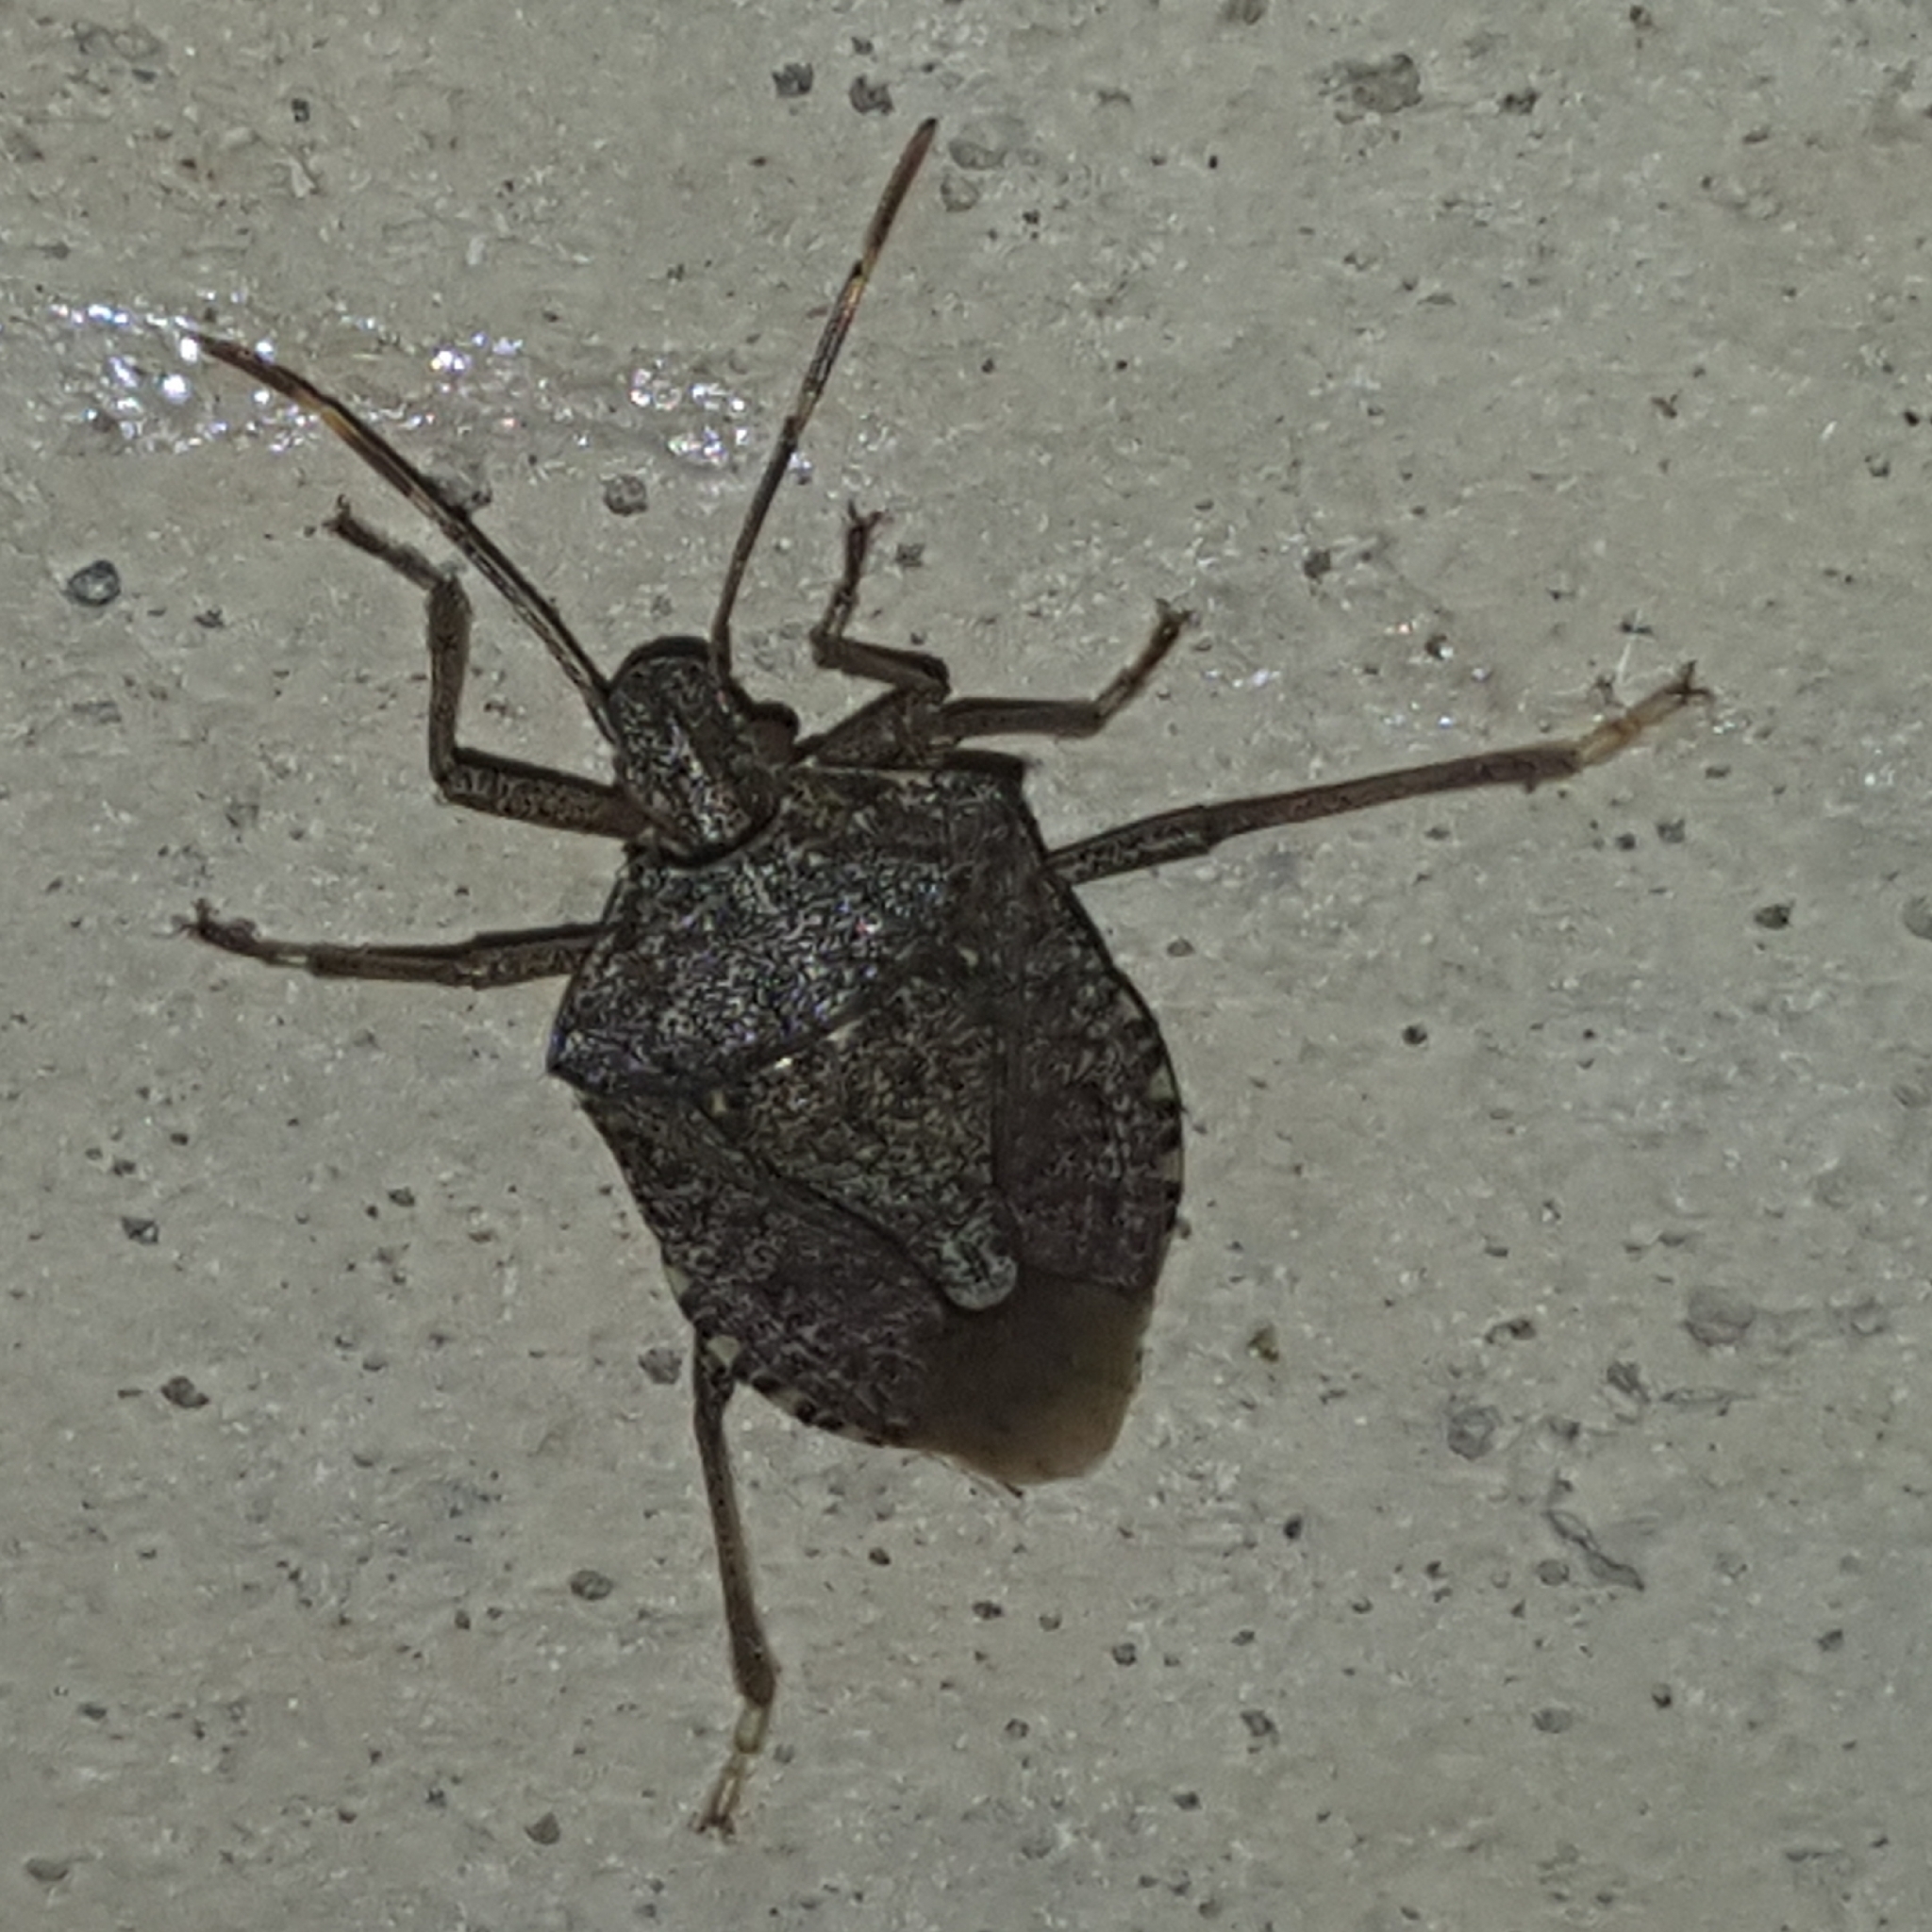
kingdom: Animalia
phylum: Arthropoda
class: Insecta
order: Hemiptera
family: Pentatomidae
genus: Halyomorpha
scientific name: Halyomorpha halys
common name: Brown marmorated stink bug
